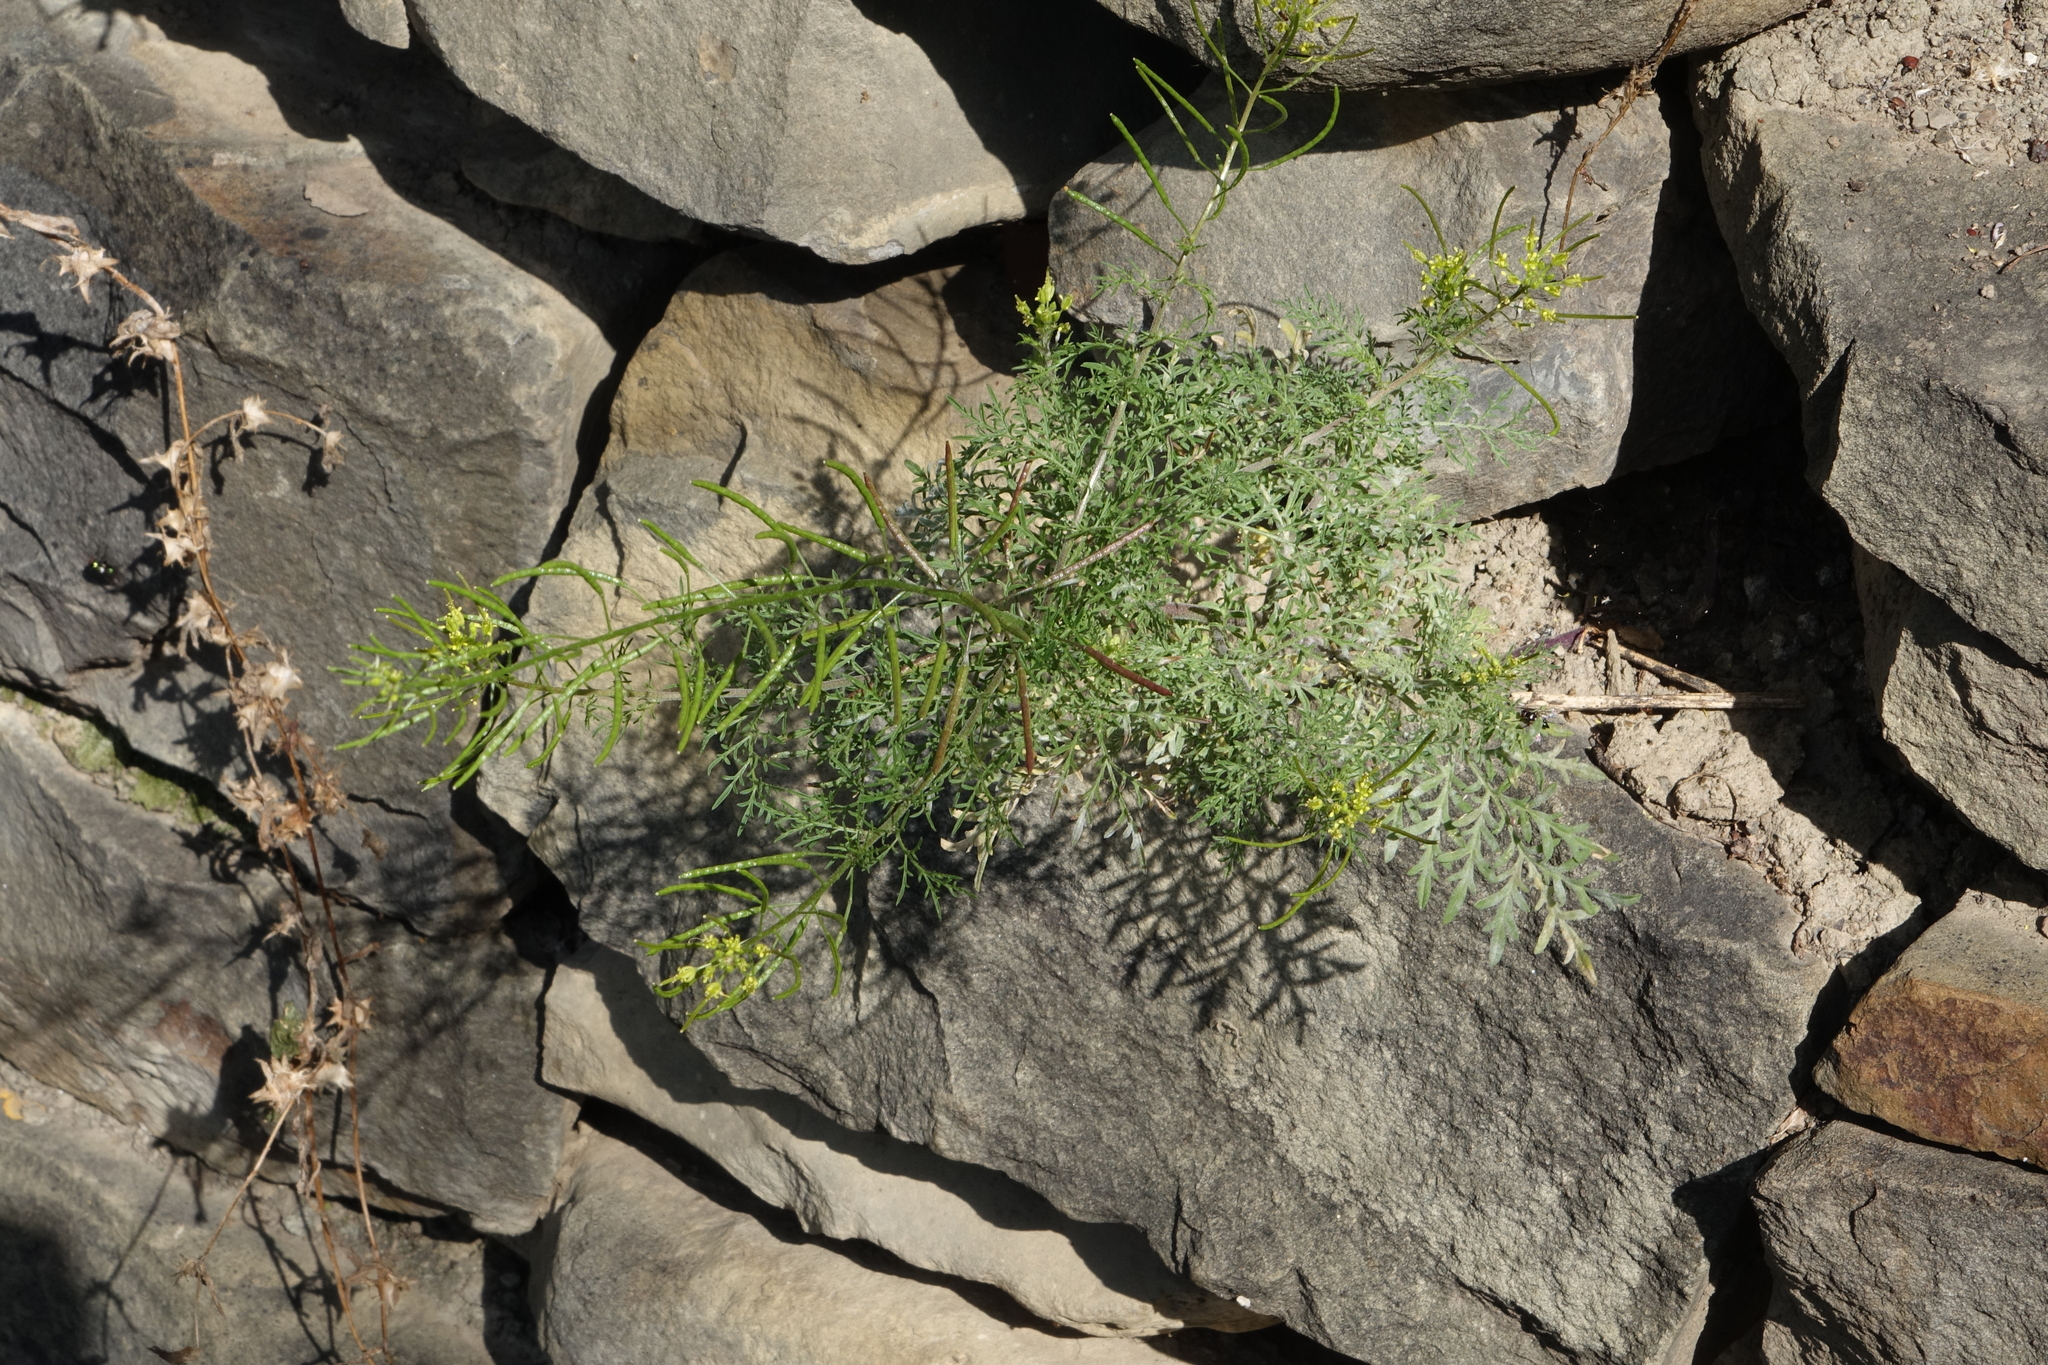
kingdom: Plantae
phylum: Tracheophyta
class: Magnoliopsida
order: Brassicales
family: Brassicaceae
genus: Descurainia
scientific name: Descurainia sophia
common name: Flixweed
